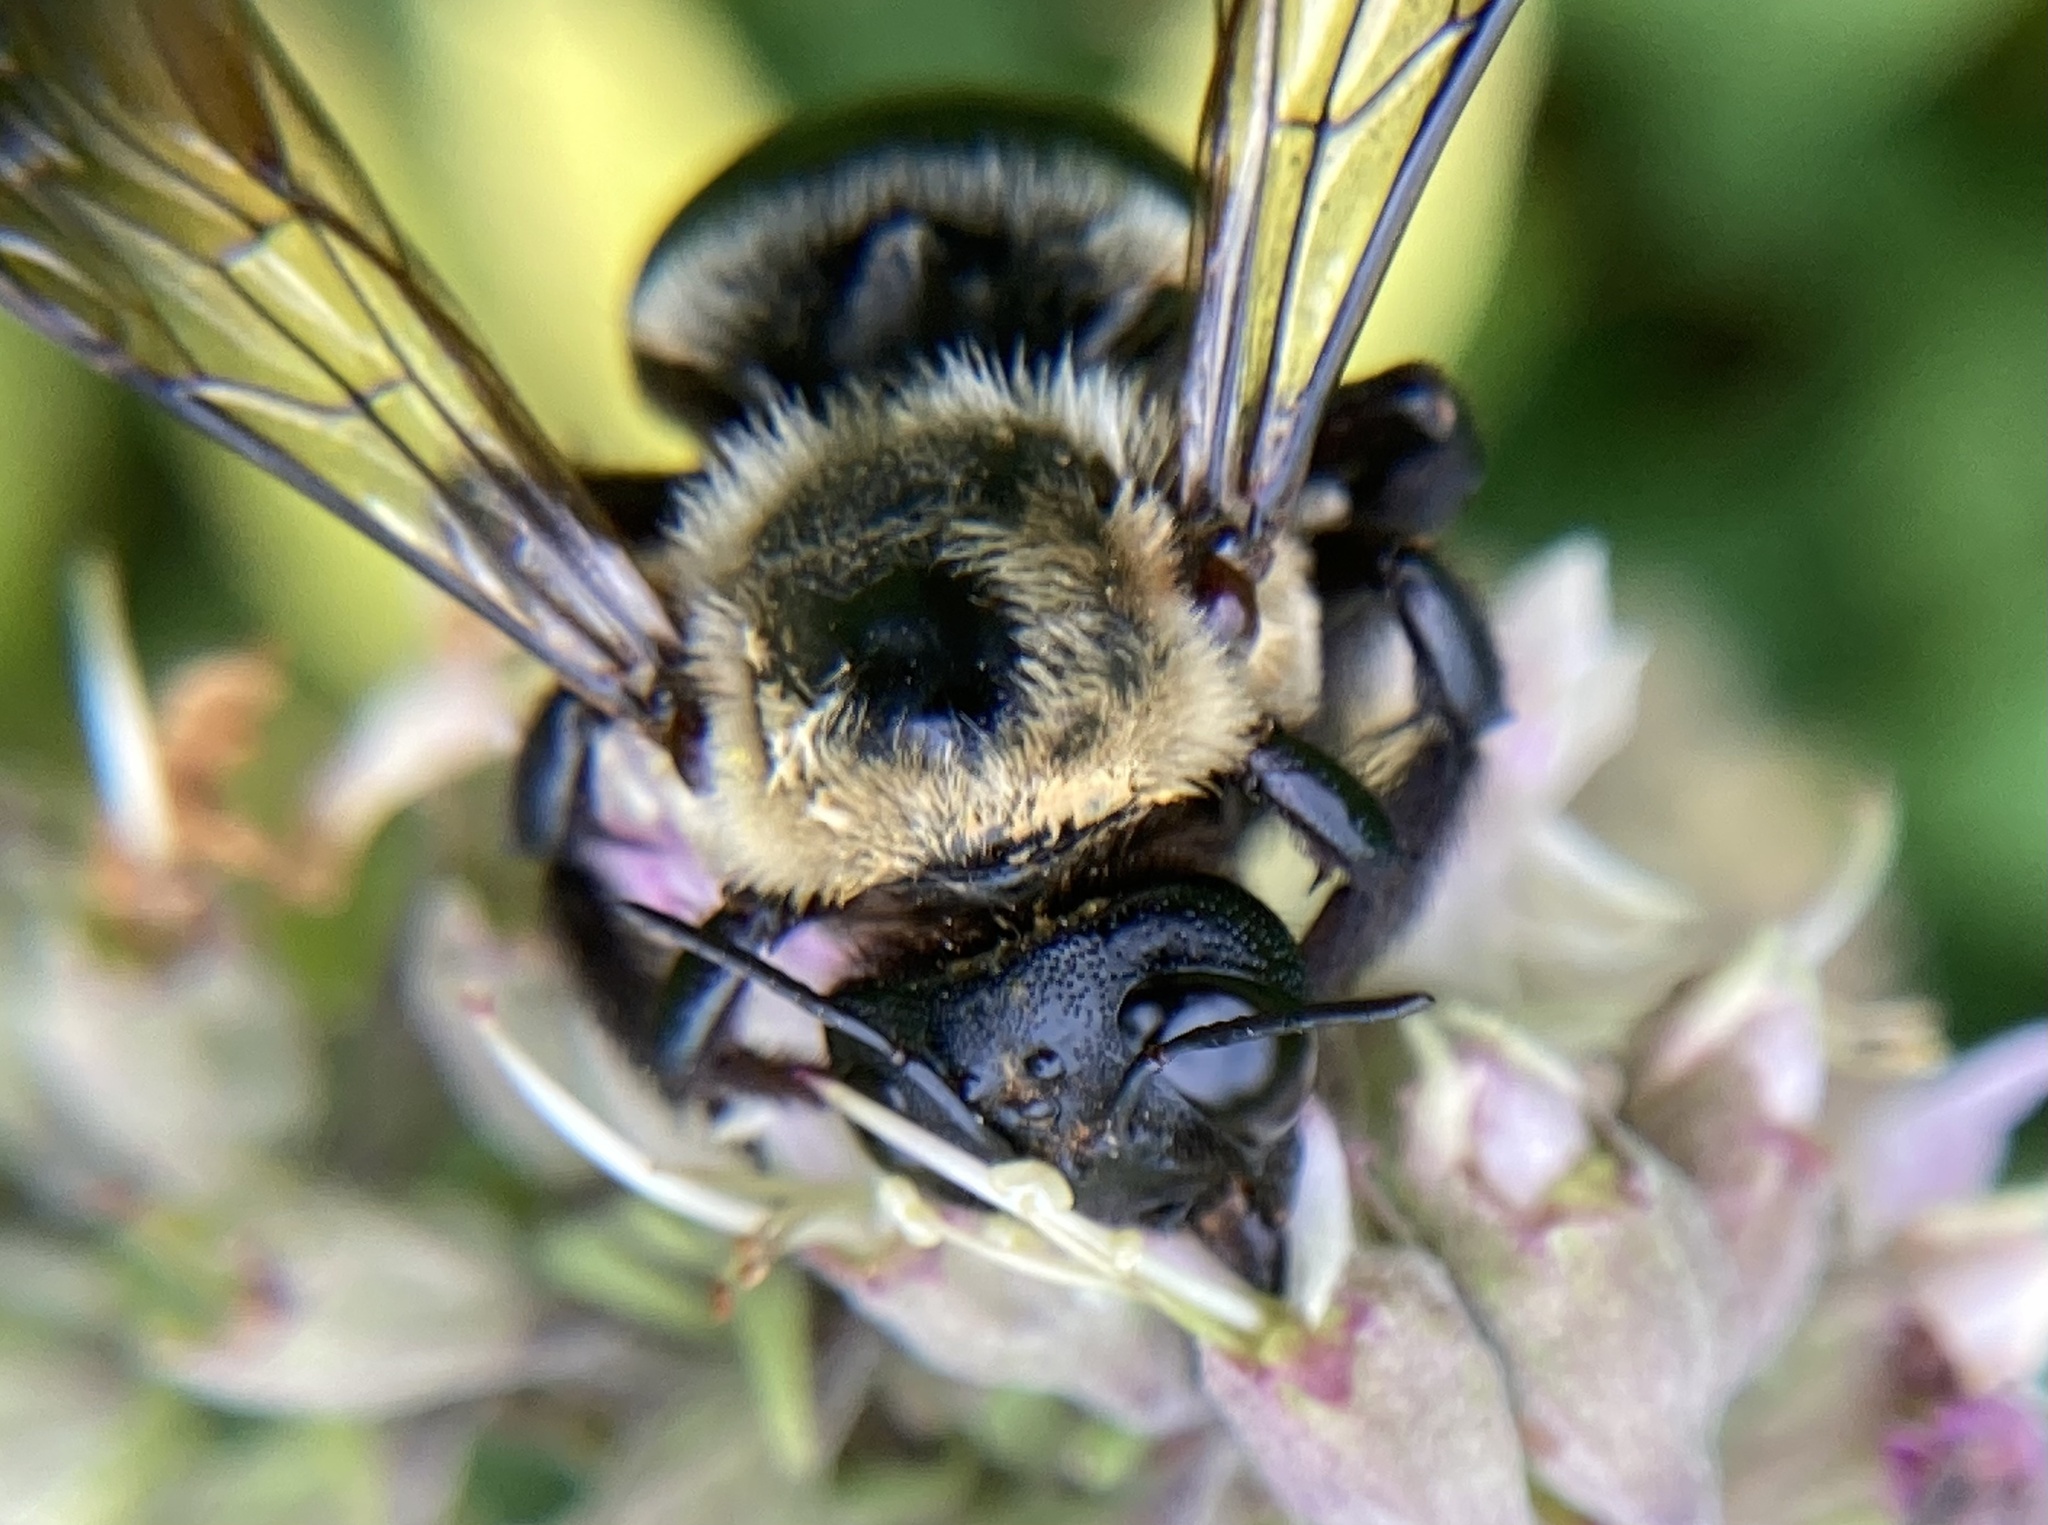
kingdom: Animalia
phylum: Arthropoda
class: Insecta
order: Hymenoptera
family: Apidae
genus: Xylocopa
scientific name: Xylocopa virginica
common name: Carpenter bee
